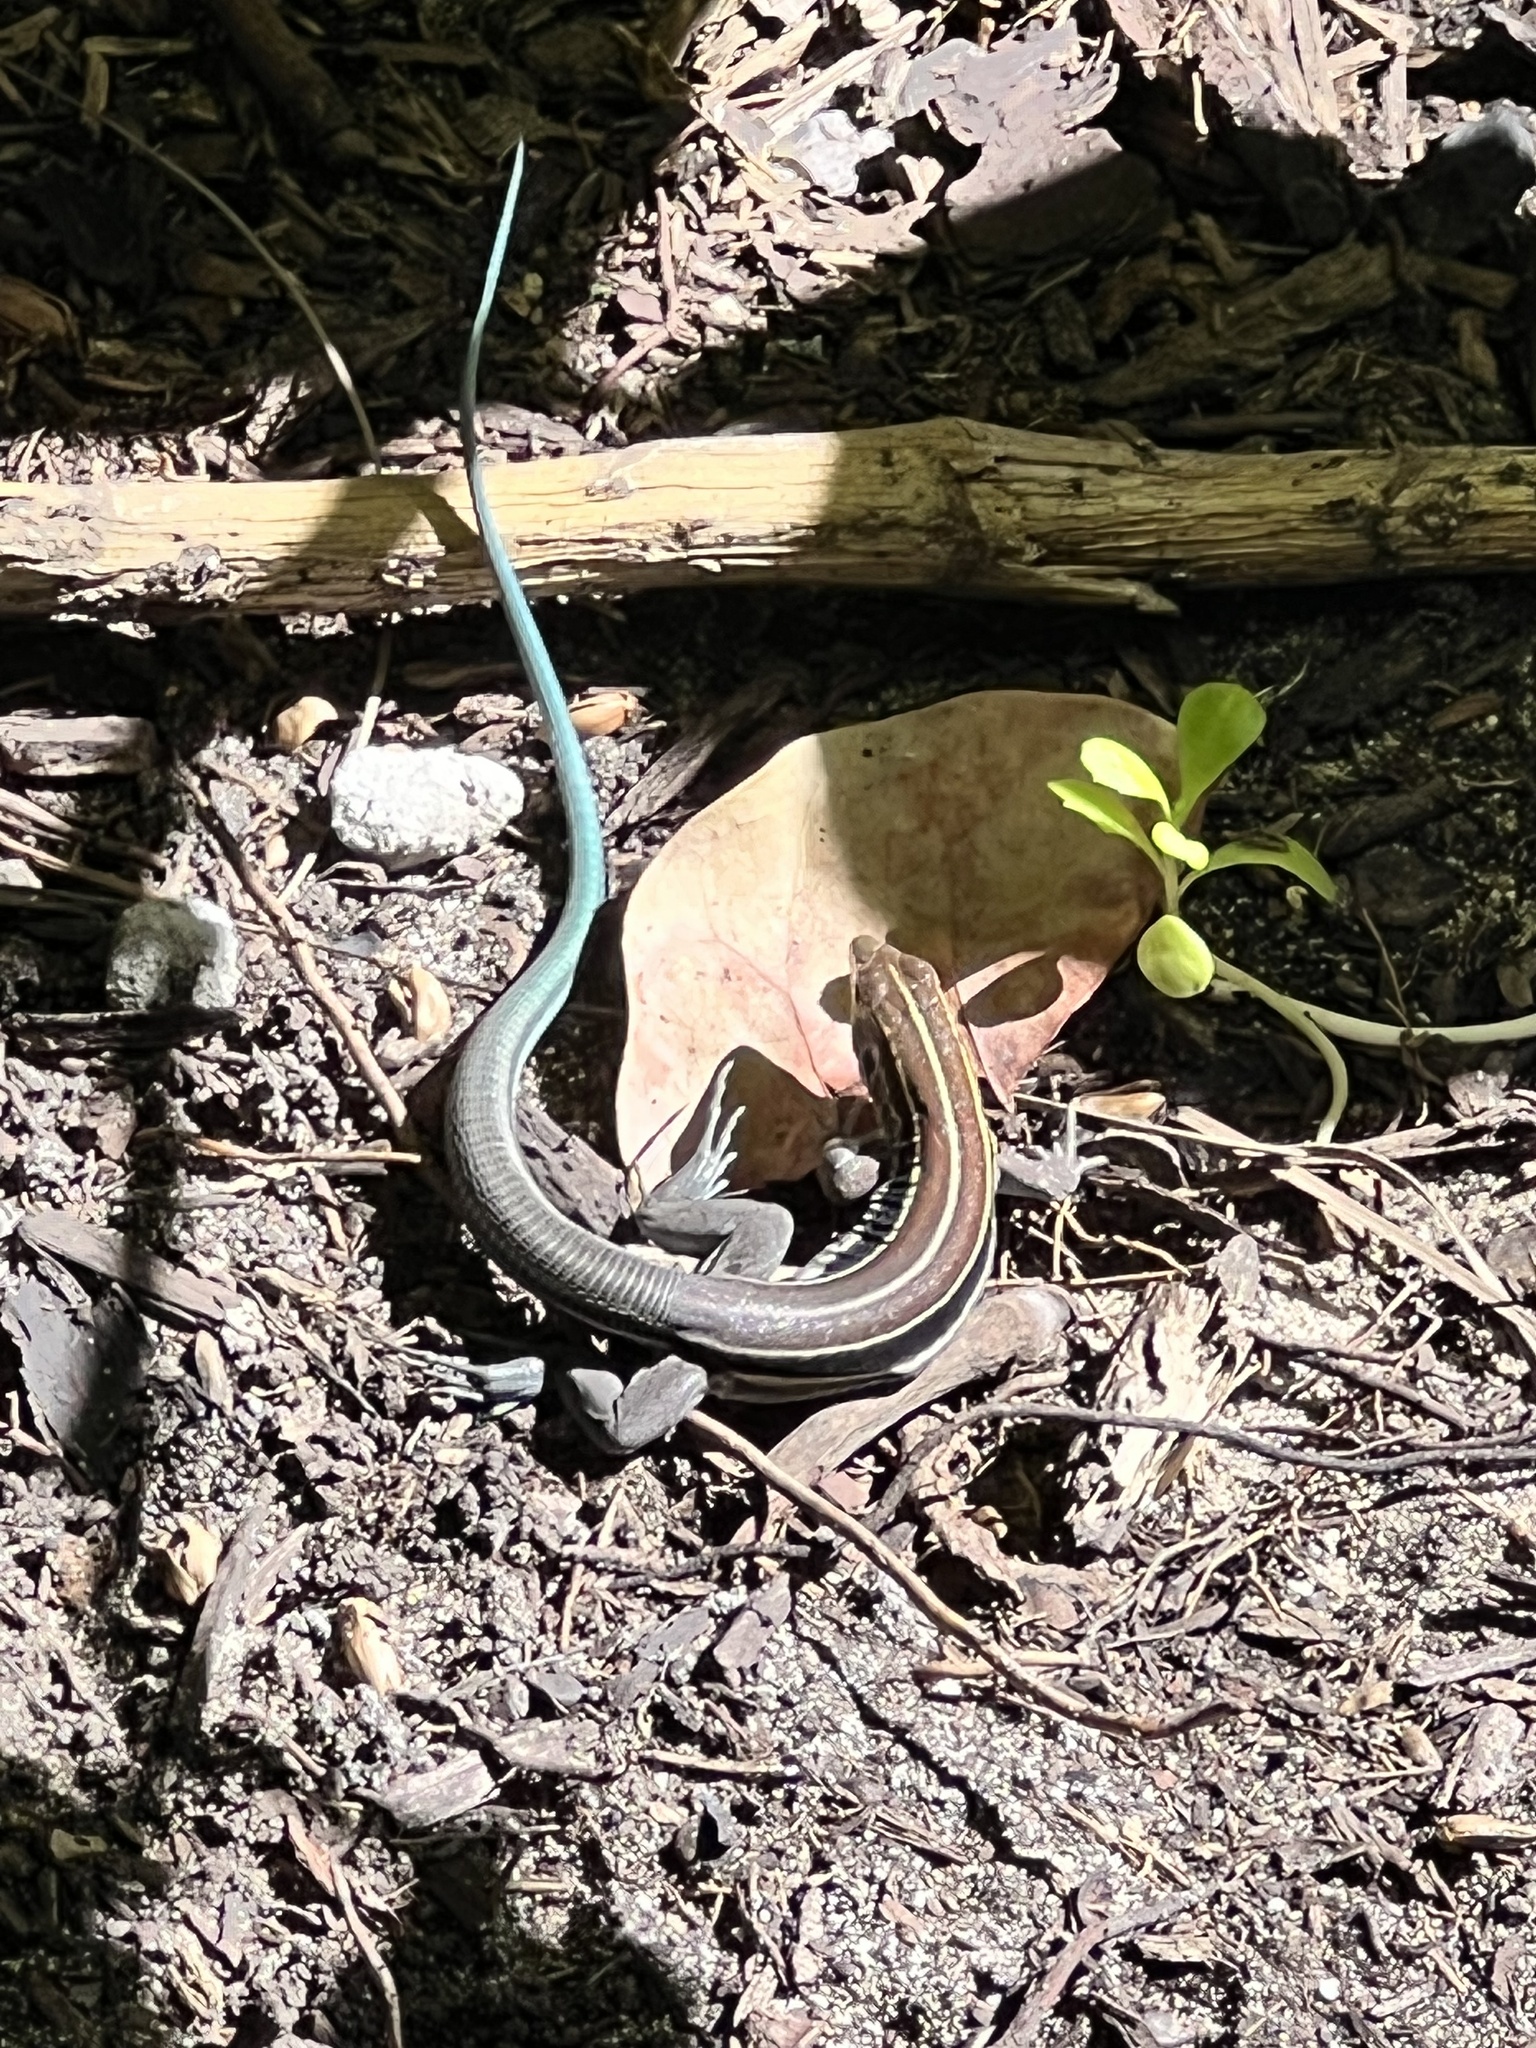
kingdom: Animalia
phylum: Chordata
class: Squamata
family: Teiidae
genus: Pholidoscelis
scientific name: Pholidoscelis auberi
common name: Auber's ameiva
